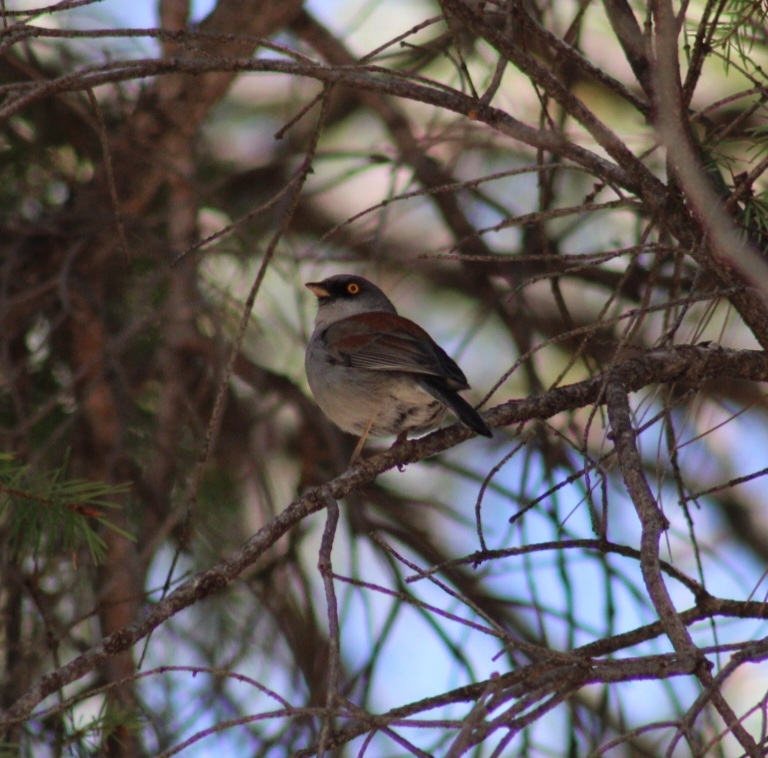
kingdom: Animalia
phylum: Chordata
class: Aves
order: Passeriformes
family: Passerellidae
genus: Junco
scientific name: Junco phaeonotus
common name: Yellow-eyed junco
